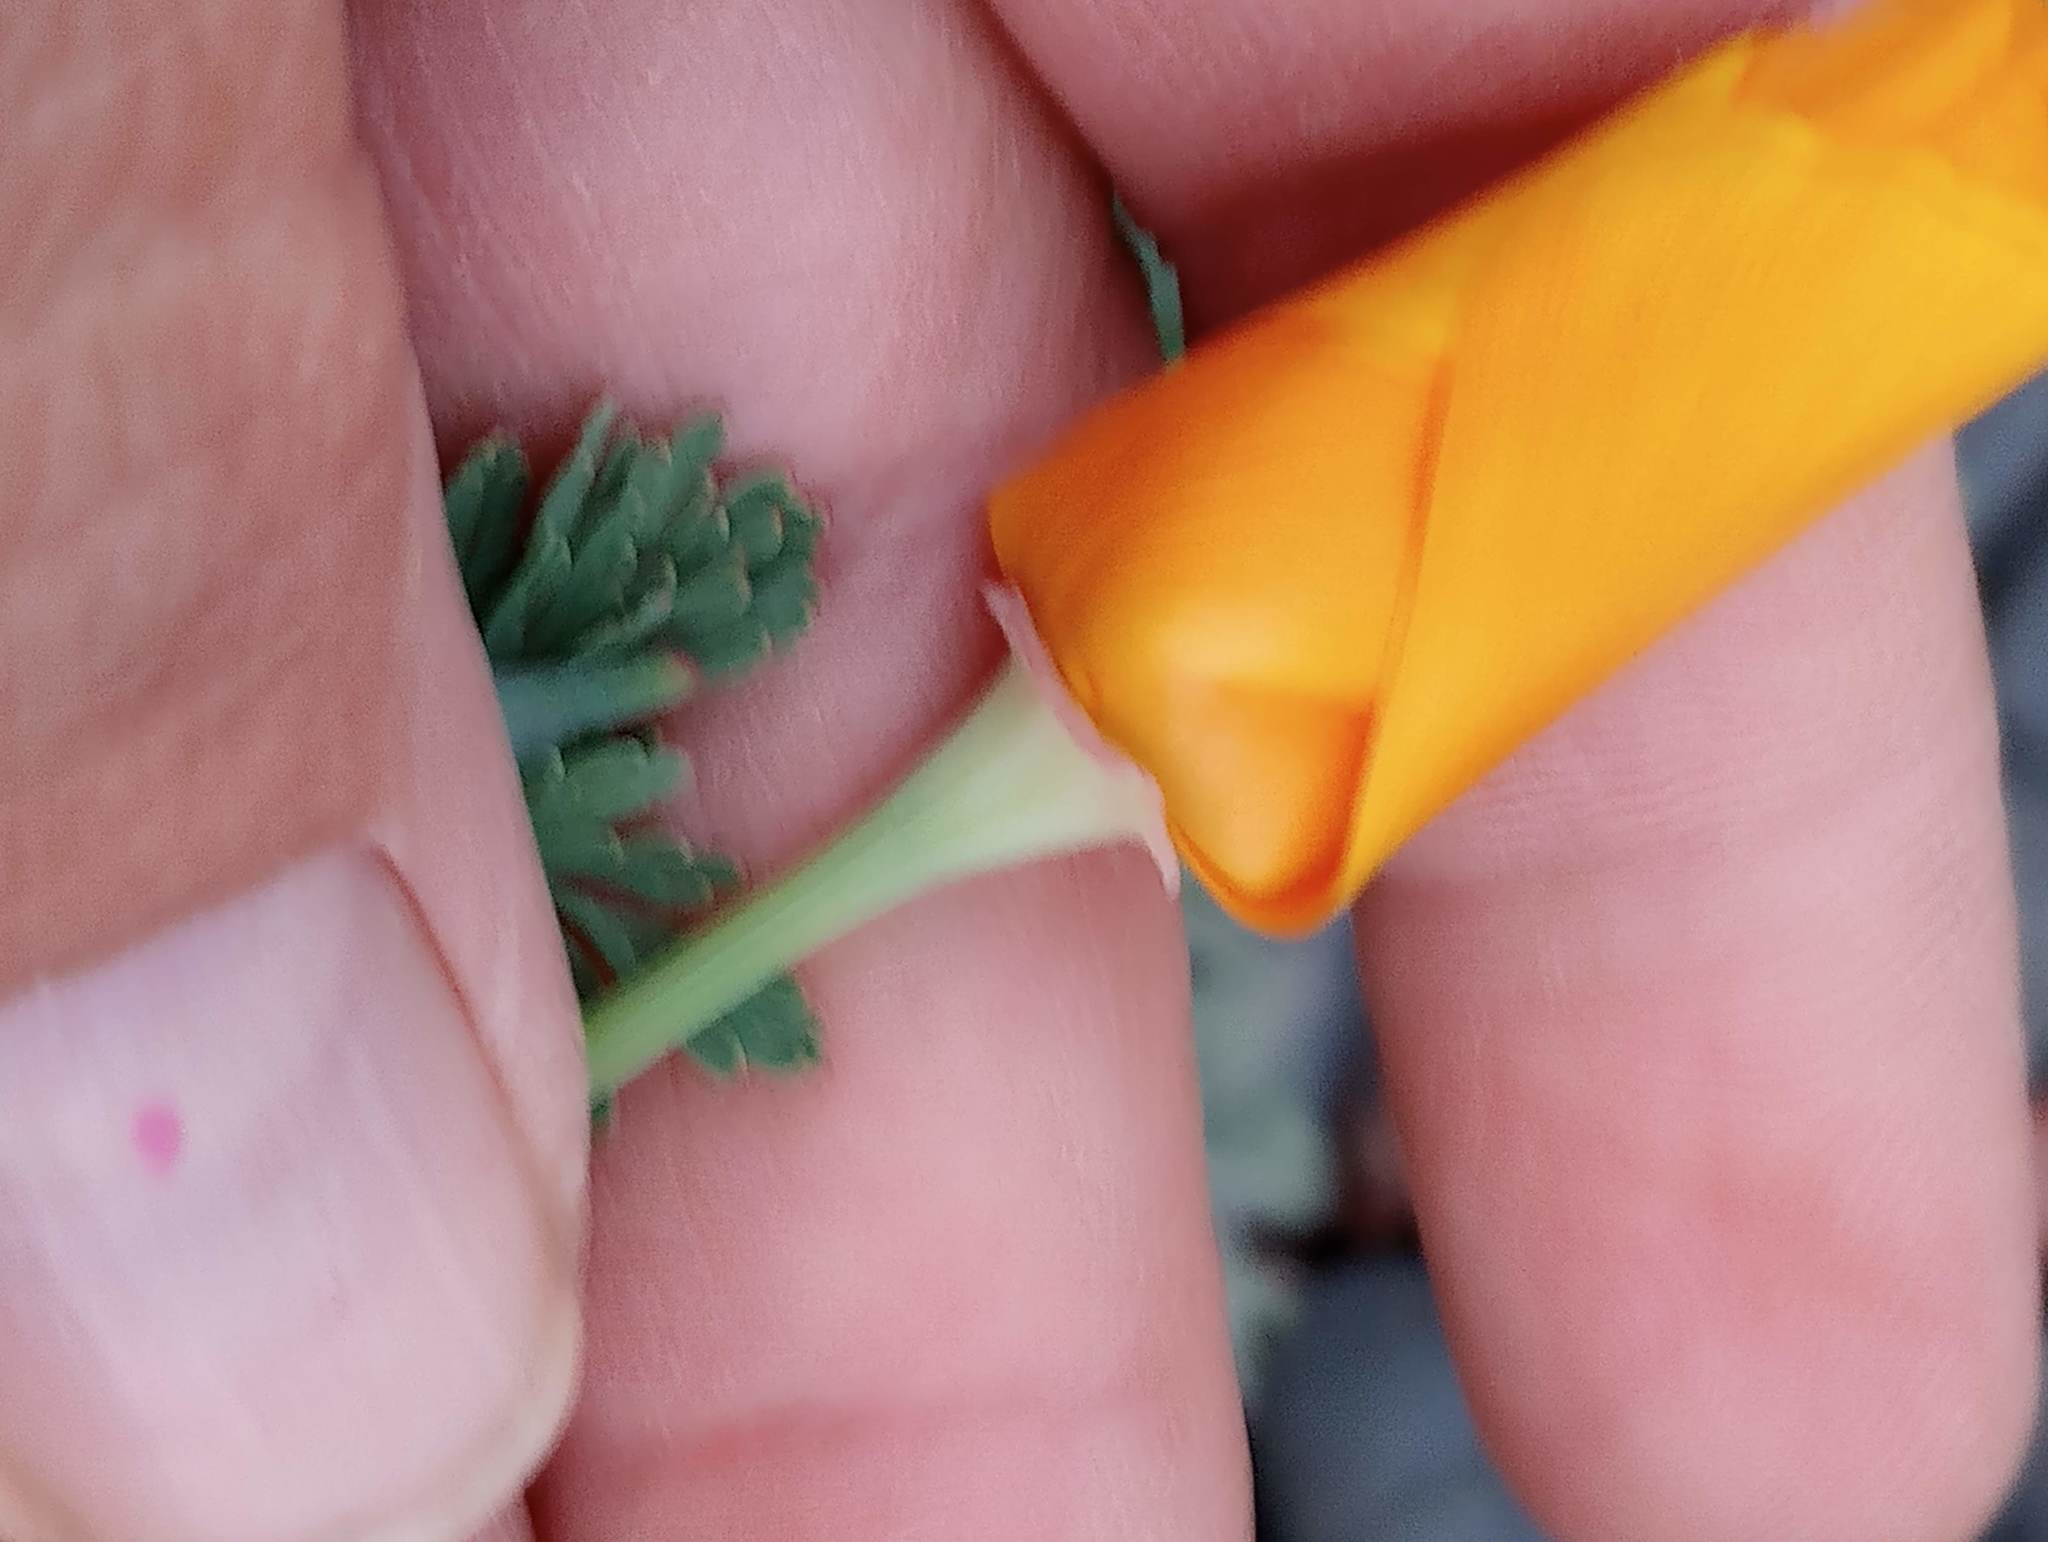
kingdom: Plantae
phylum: Tracheophyta
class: Magnoliopsida
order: Ranunculales
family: Papaveraceae
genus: Eschscholzia
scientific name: Eschscholzia californica
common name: California poppy
